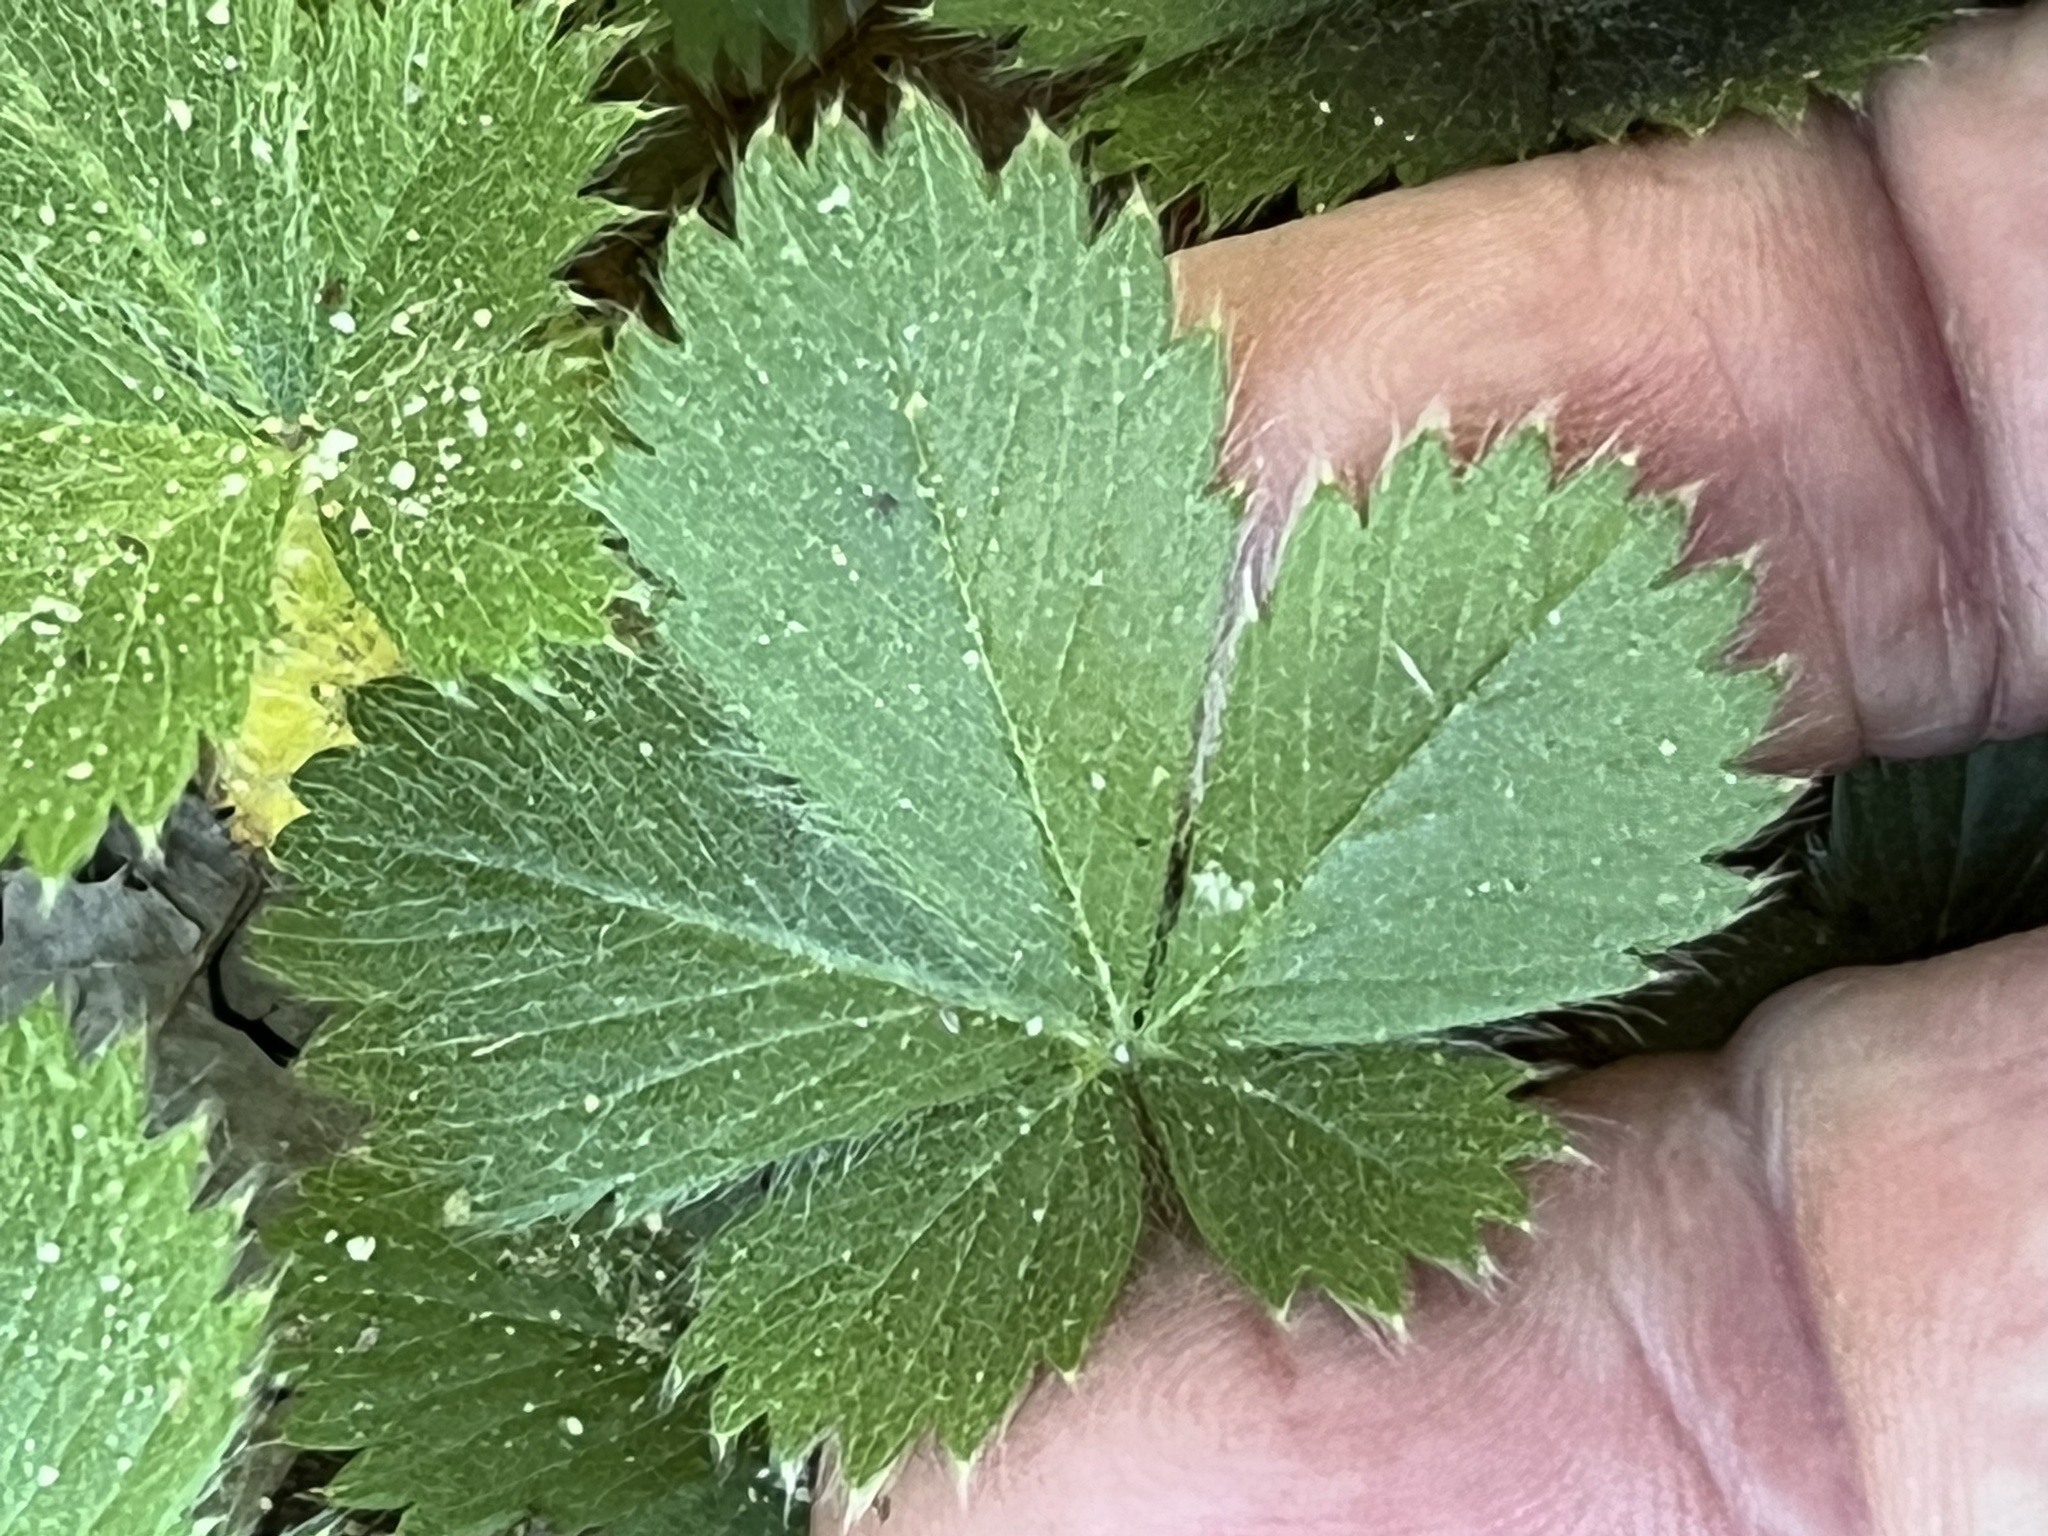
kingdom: Plantae
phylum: Tracheophyta
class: Magnoliopsida
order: Rosales
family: Rosaceae
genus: Potentilla
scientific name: Potentilla canadensis
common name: Canada cinquefoil
